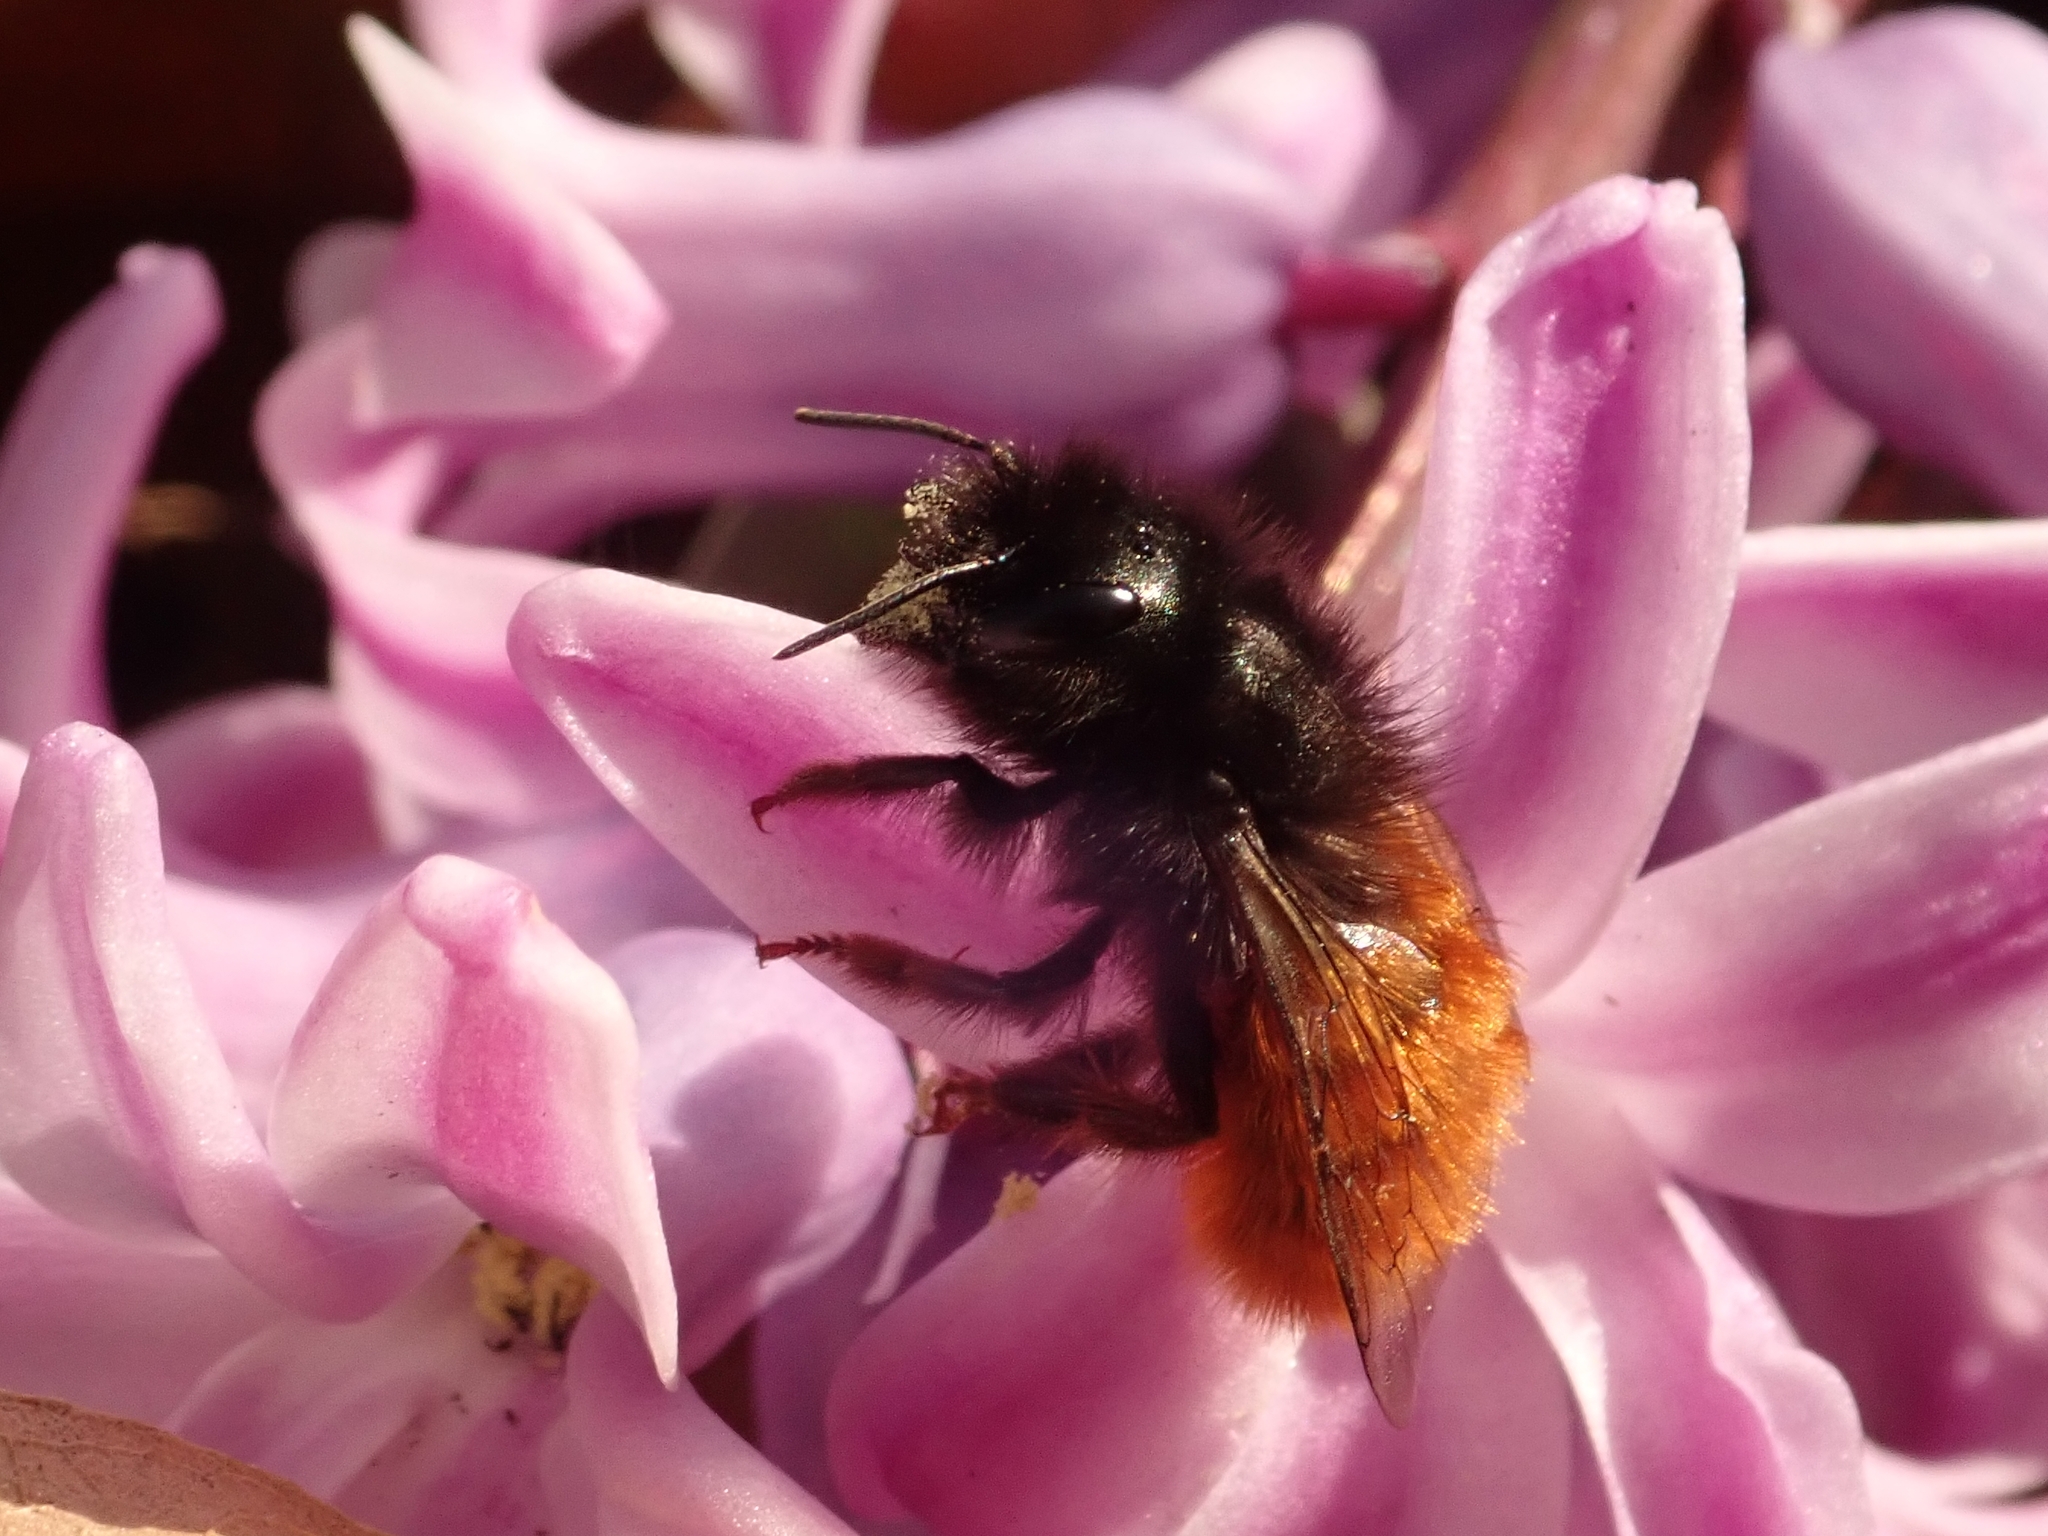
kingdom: Animalia
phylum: Arthropoda
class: Insecta
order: Hymenoptera
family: Megachilidae
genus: Osmia
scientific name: Osmia cornuta
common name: Mason bee
